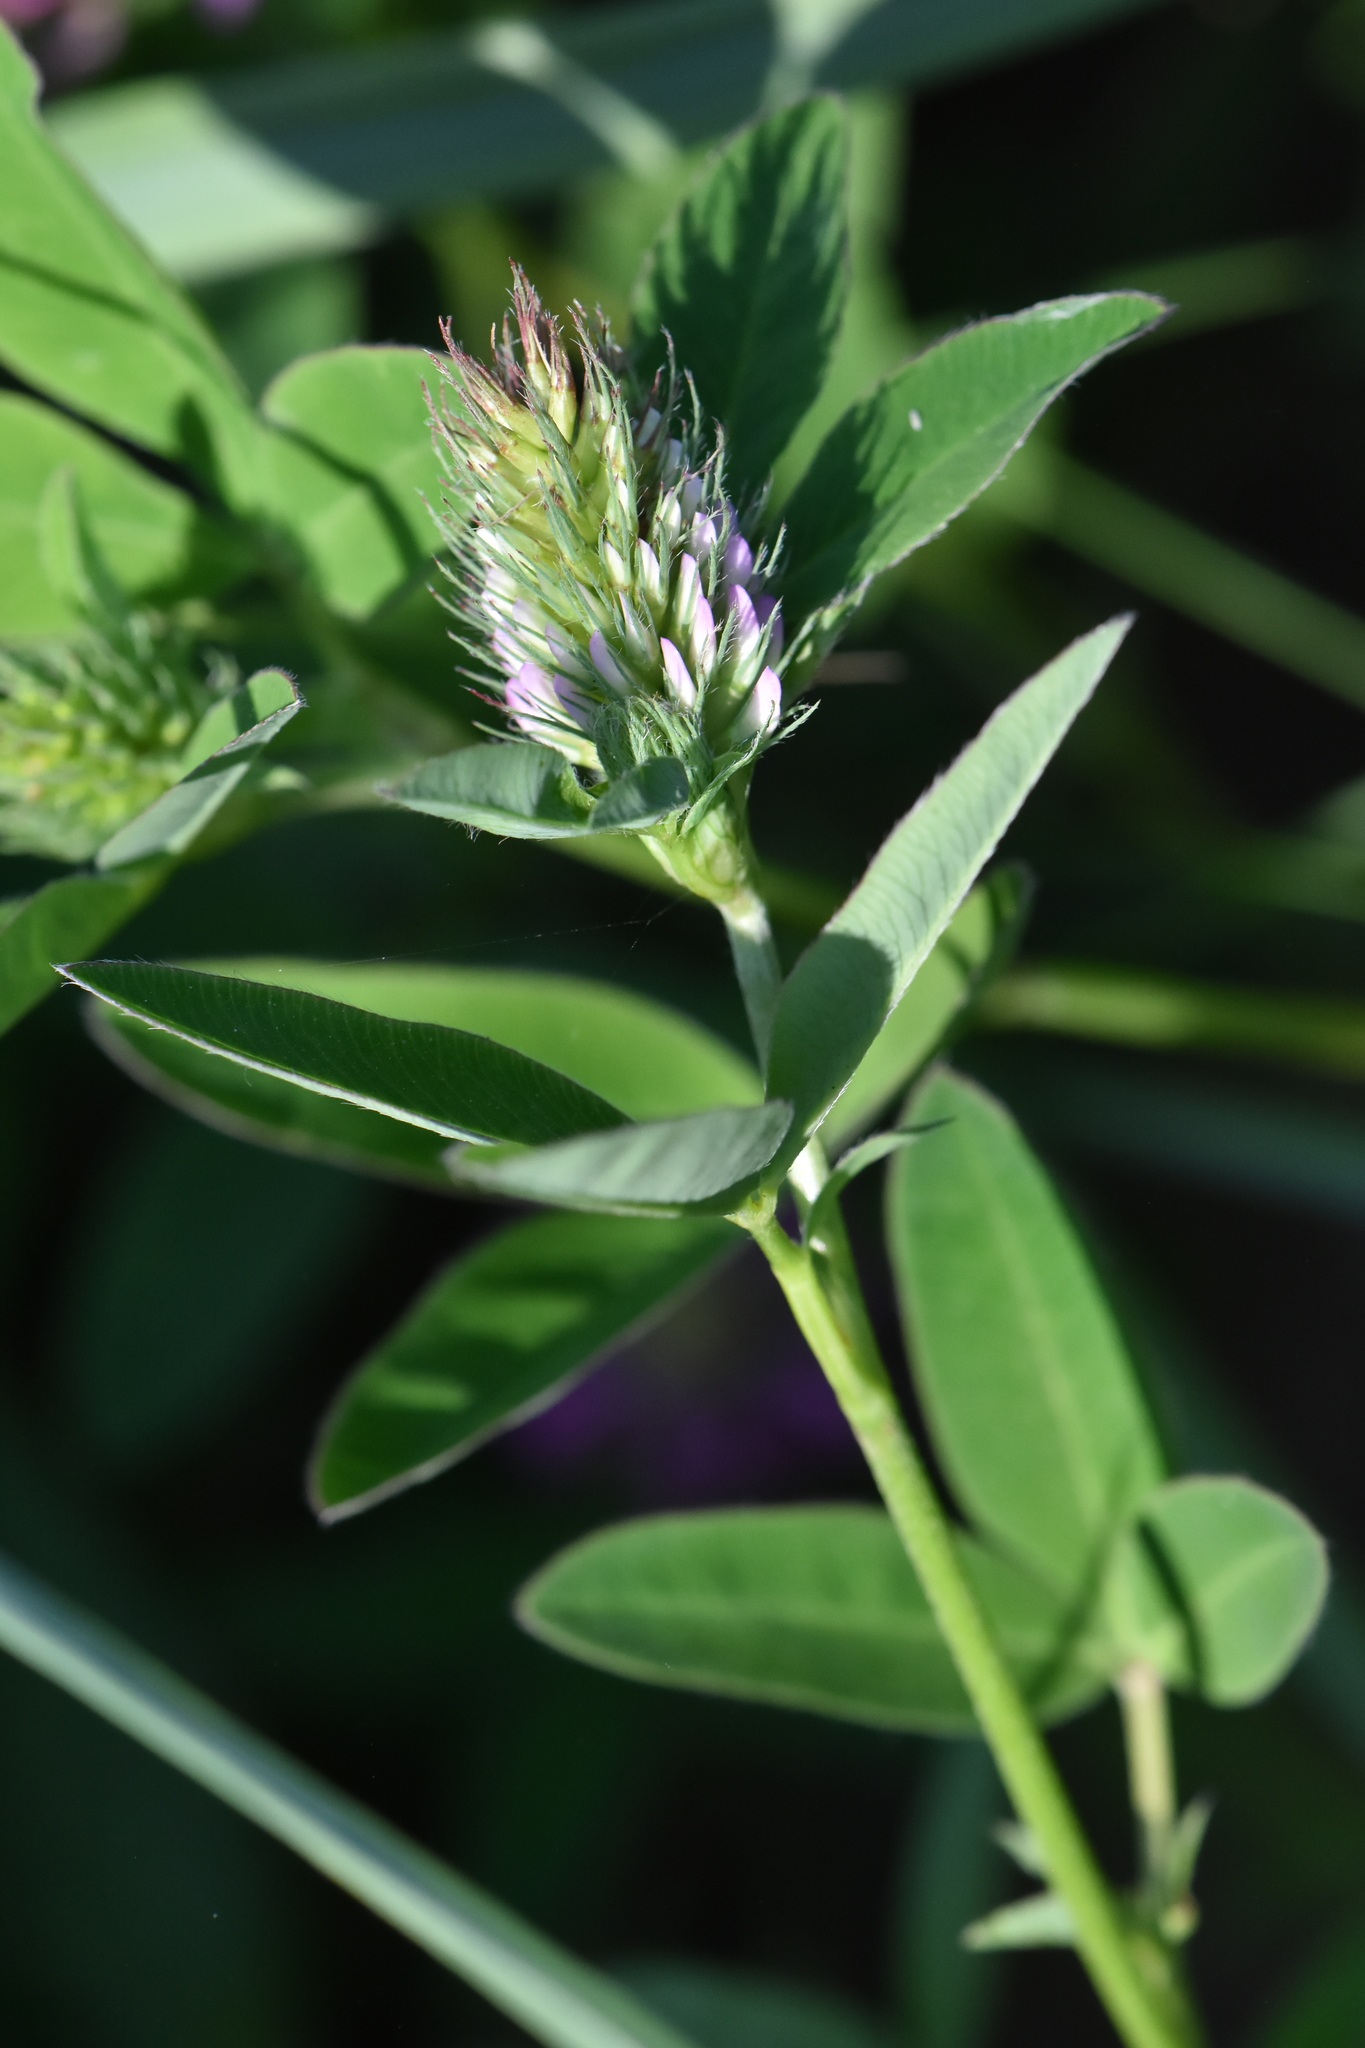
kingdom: Plantae
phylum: Tracheophyta
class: Magnoliopsida
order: Fabales
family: Fabaceae
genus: Trifolium
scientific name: Trifolium medium
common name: Zigzag clover
